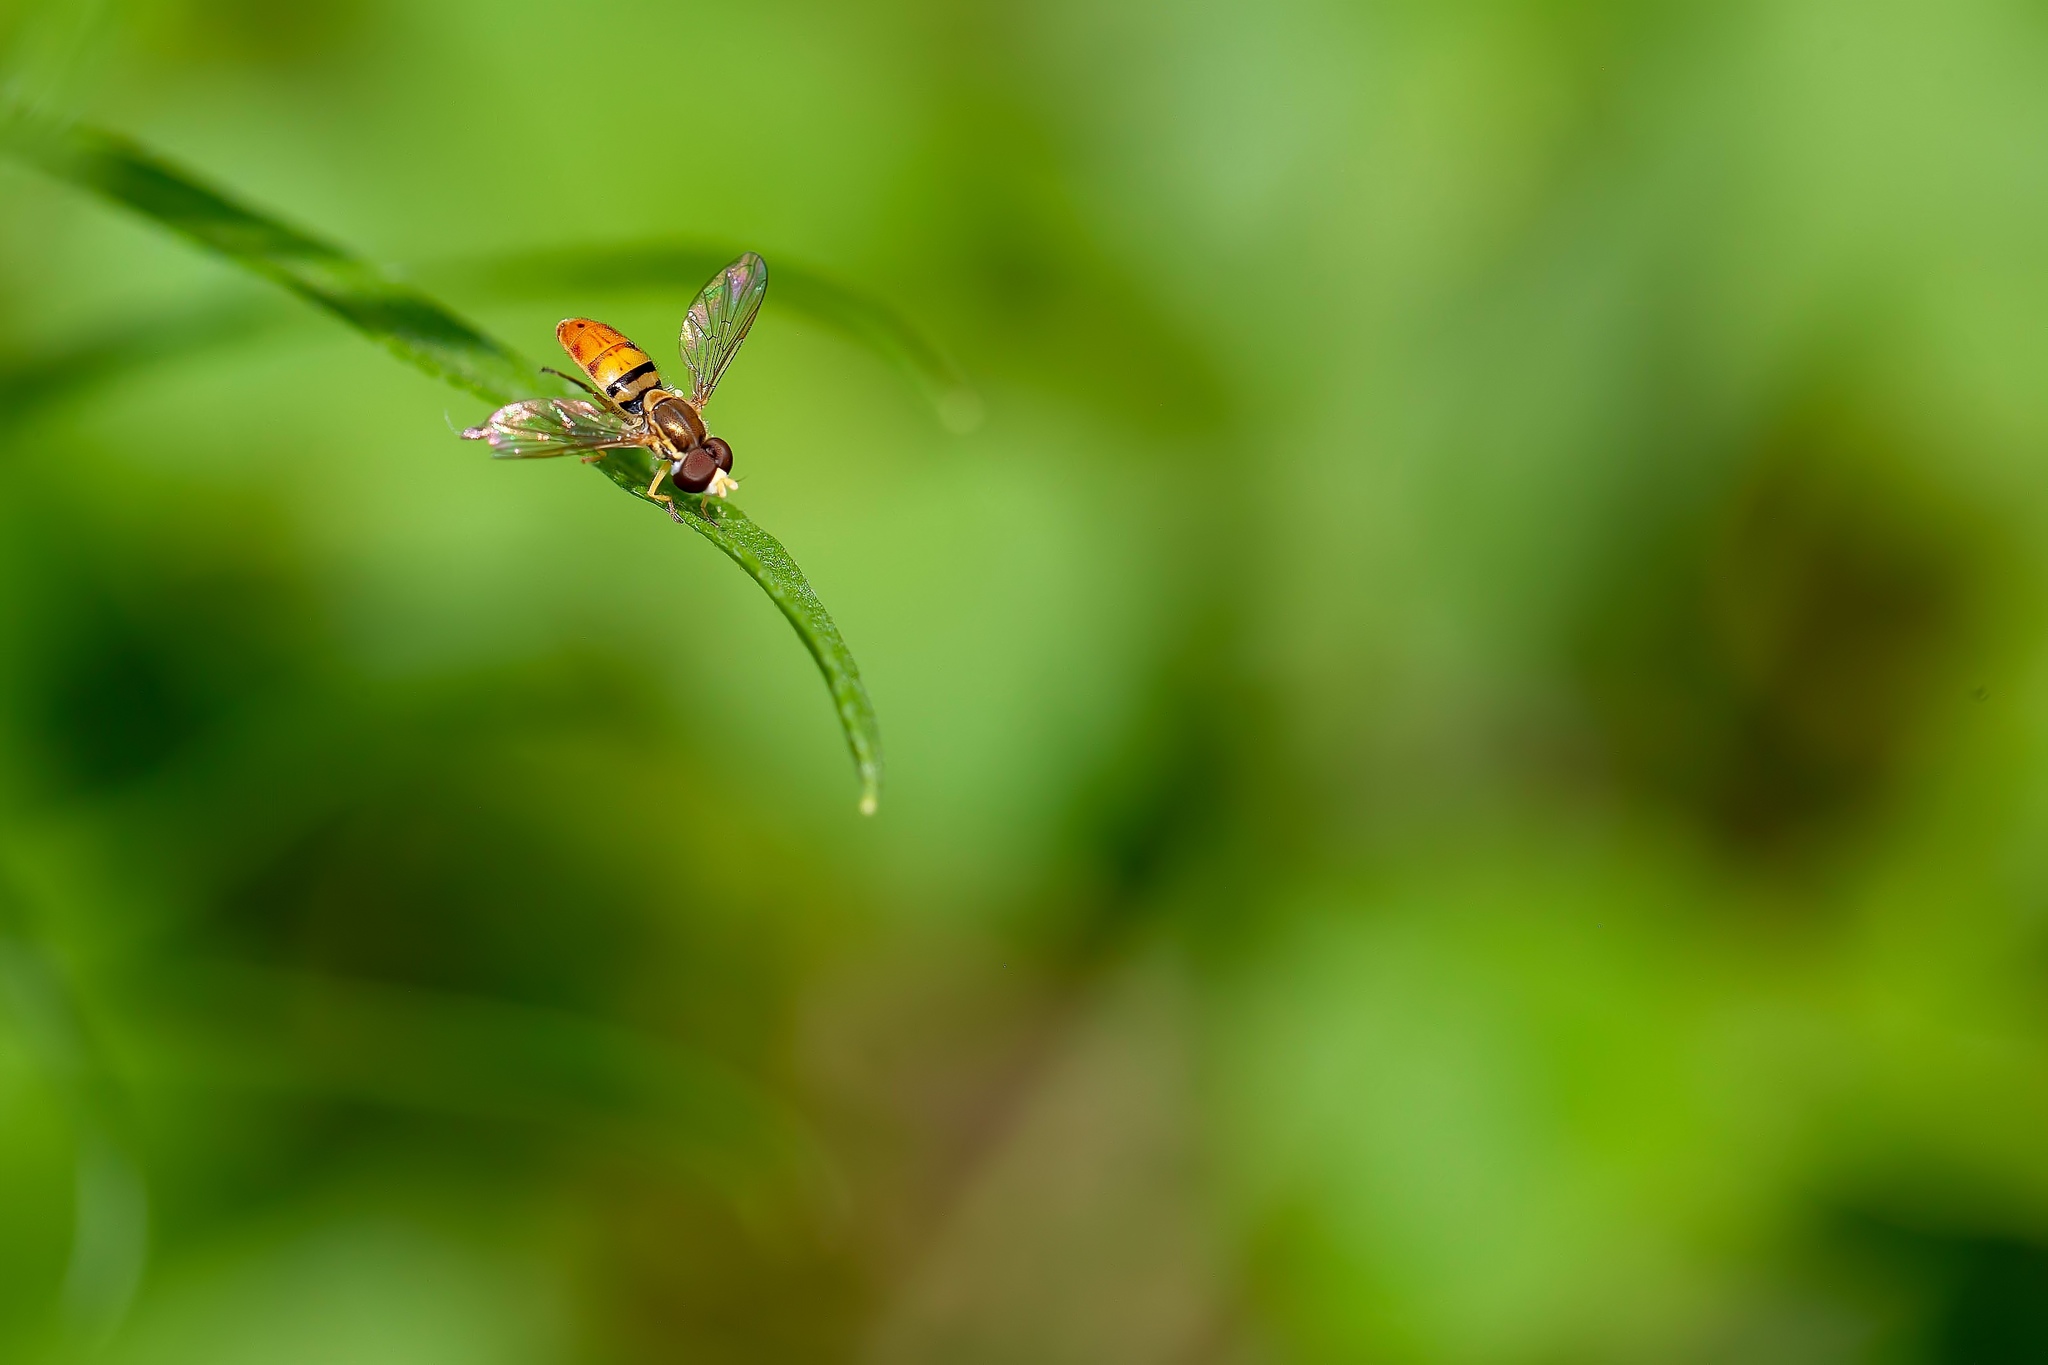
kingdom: Animalia
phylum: Arthropoda
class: Insecta
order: Diptera
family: Syrphidae
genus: Toxomerus
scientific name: Toxomerus floralis
